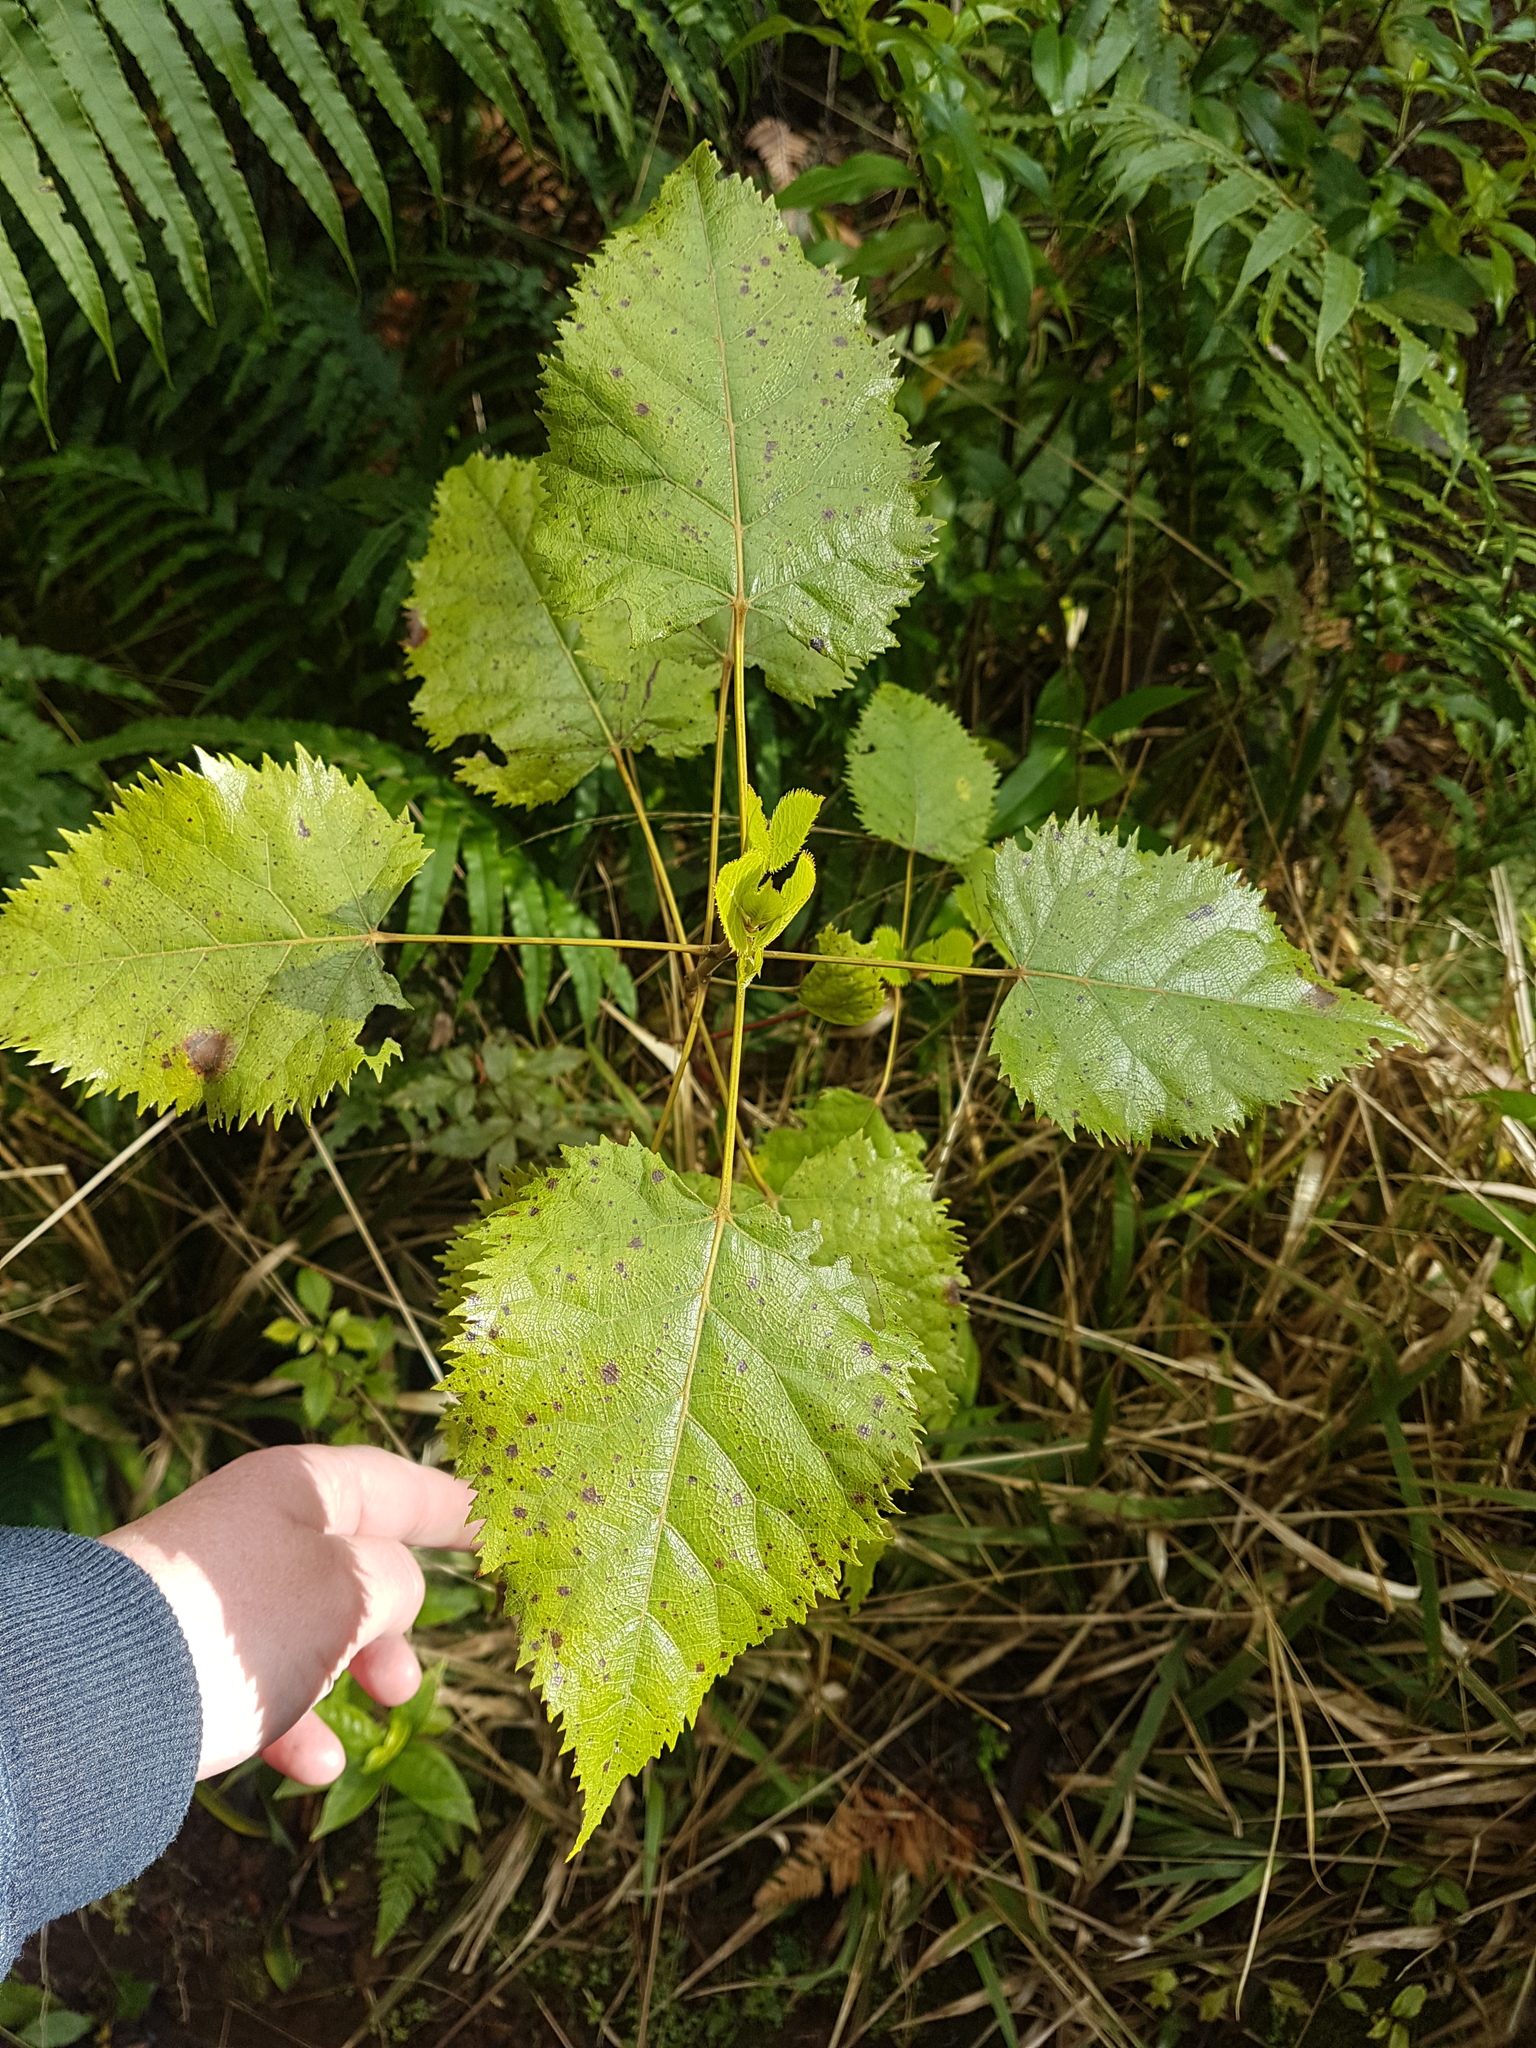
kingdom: Plantae
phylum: Tracheophyta
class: Magnoliopsida
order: Oxalidales
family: Elaeocarpaceae
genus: Aristotelia
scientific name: Aristotelia serrata
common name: New zealand wineberry
